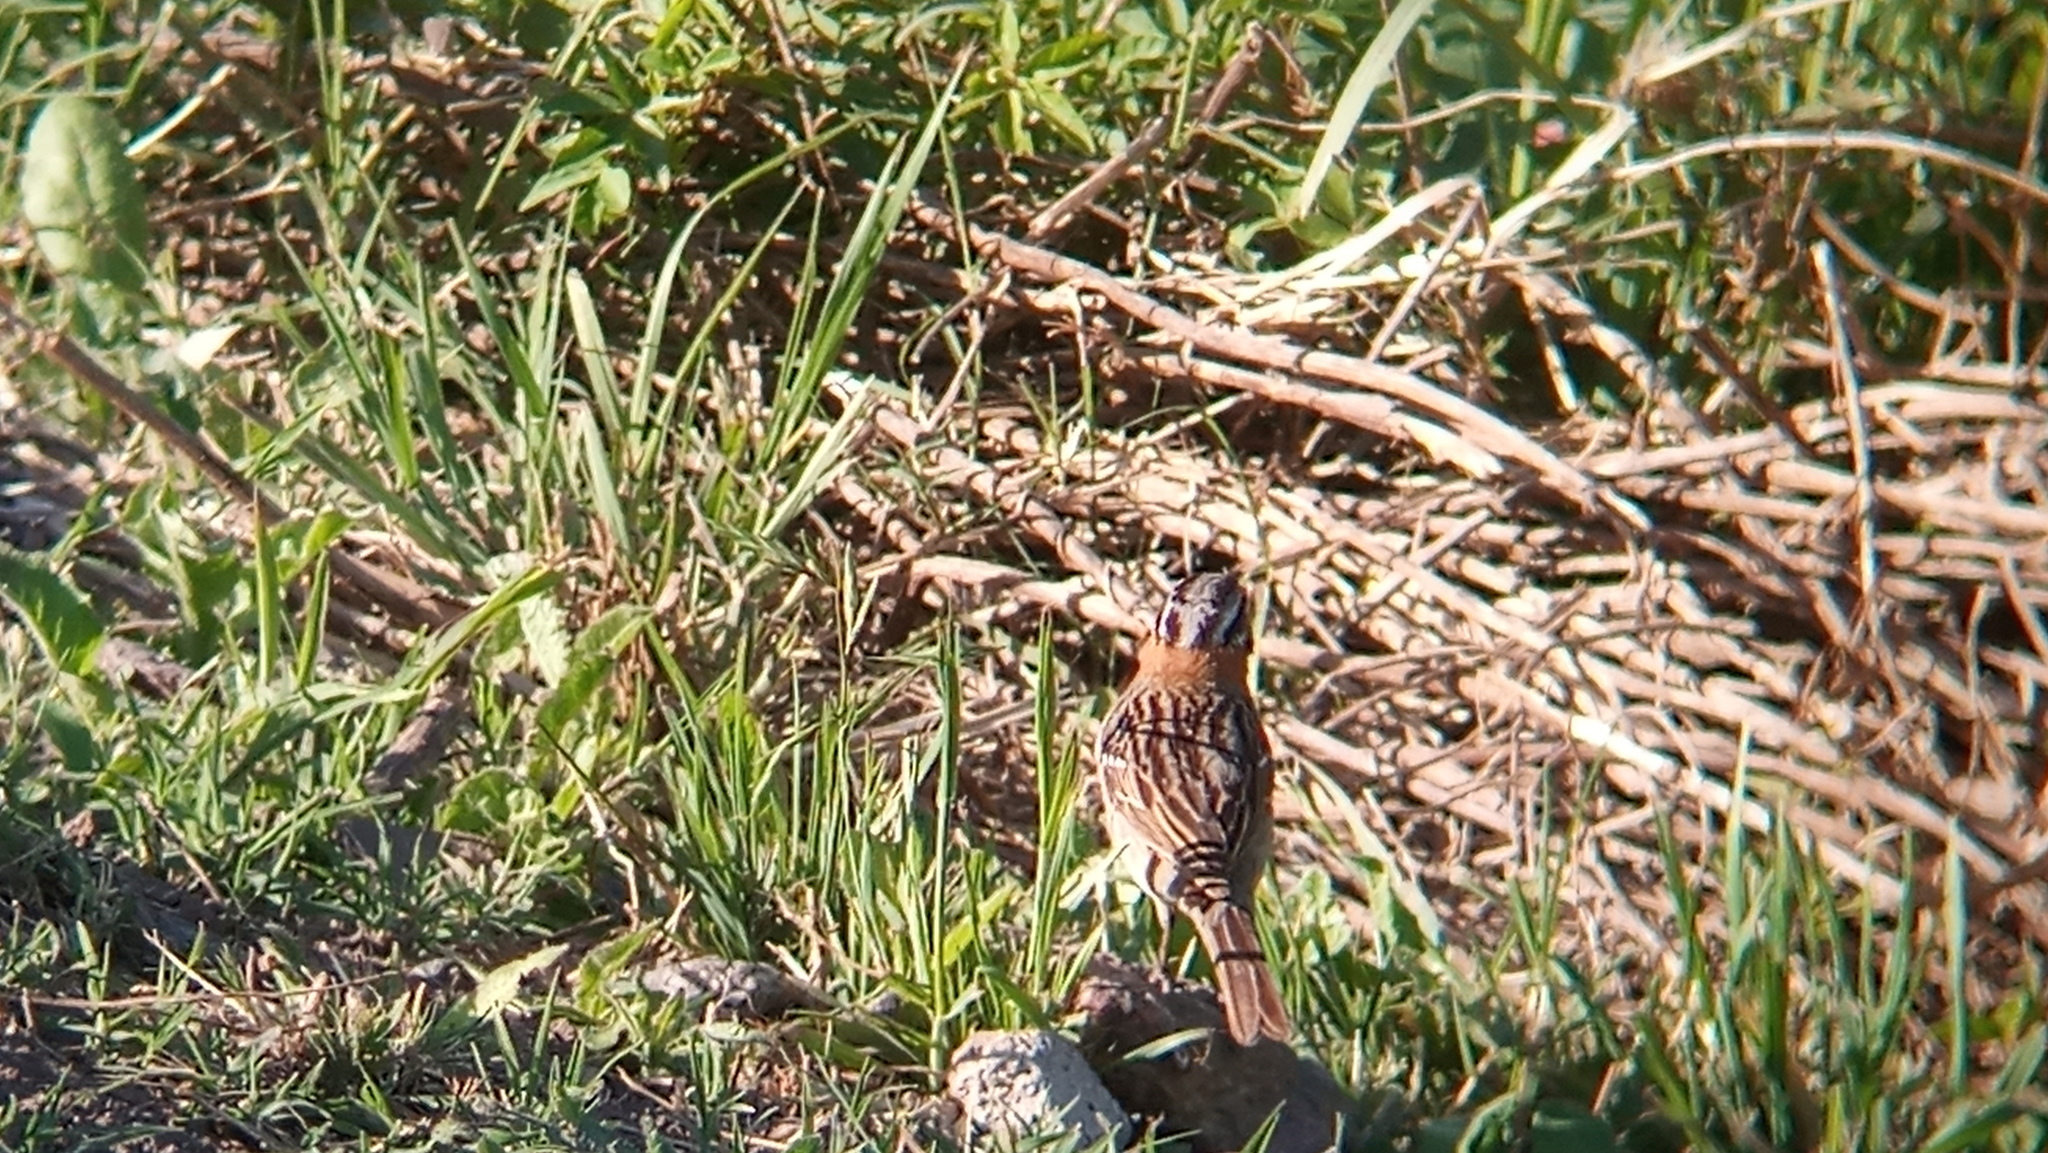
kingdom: Animalia
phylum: Chordata
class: Aves
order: Passeriformes
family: Passerellidae
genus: Zonotrichia
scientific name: Zonotrichia capensis
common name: Rufous-collared sparrow
